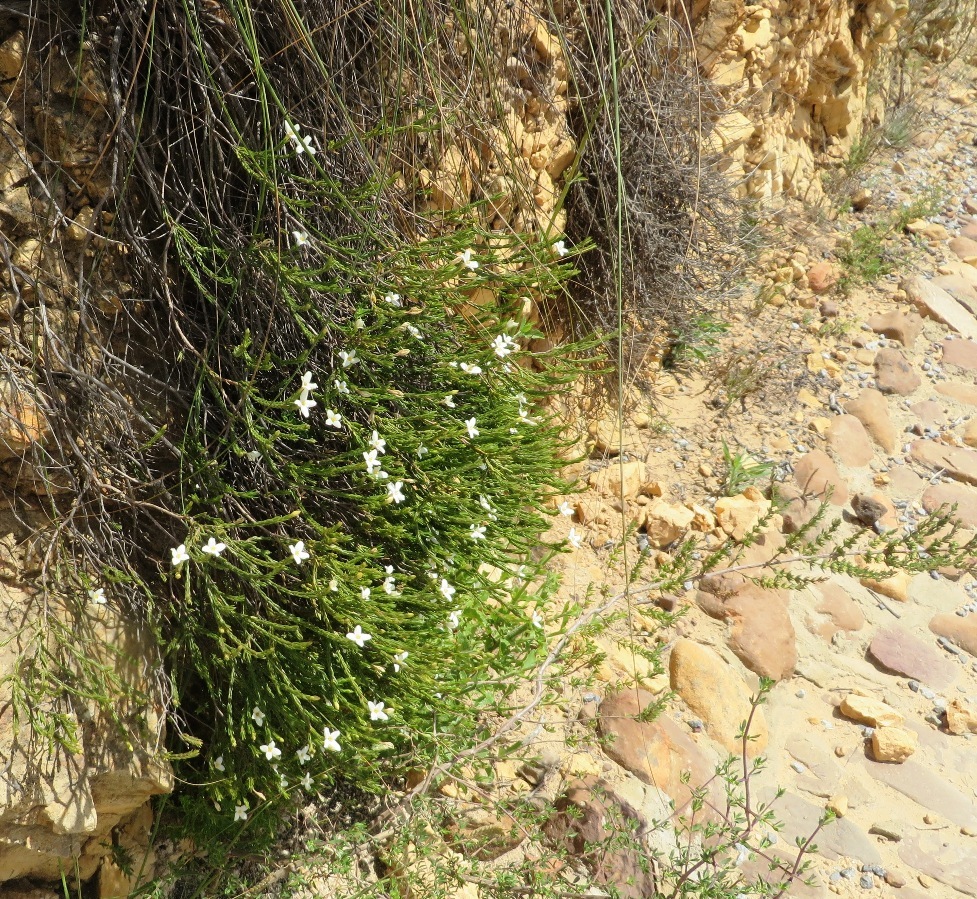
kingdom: Plantae
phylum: Tracheophyta
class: Magnoliopsida
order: Malvales
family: Thymelaeaceae
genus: Lachnaea
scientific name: Lachnaea grandiflora
